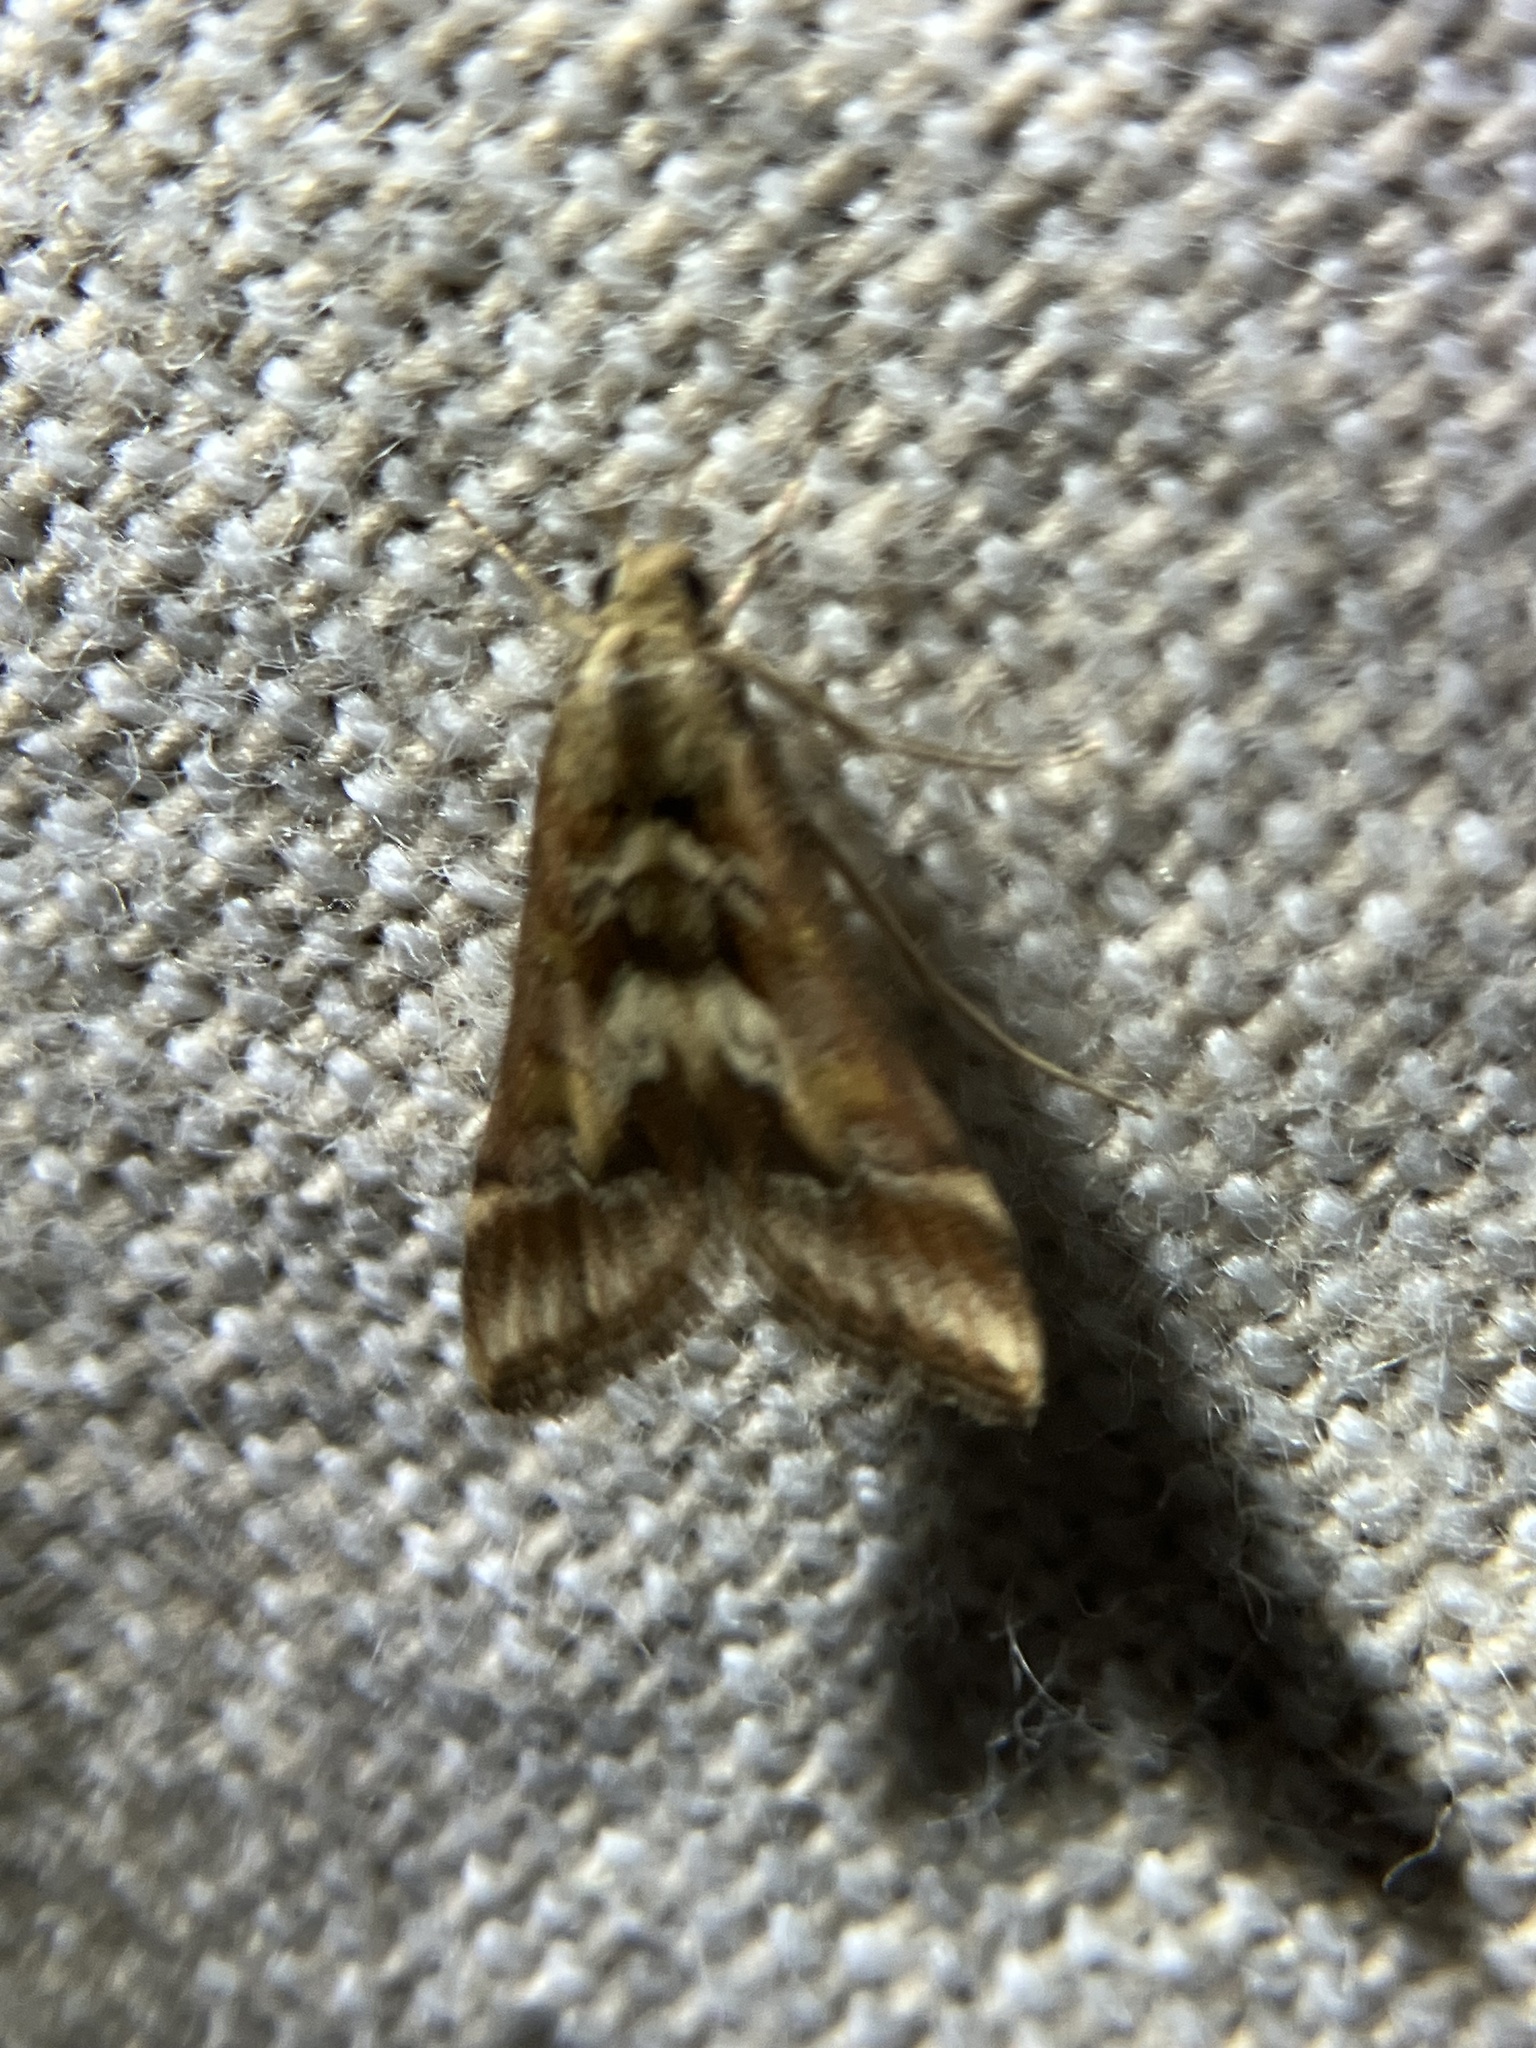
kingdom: Animalia
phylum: Arthropoda
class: Insecta
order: Lepidoptera
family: Crambidae
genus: Diasemia
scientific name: Diasemia accalis
